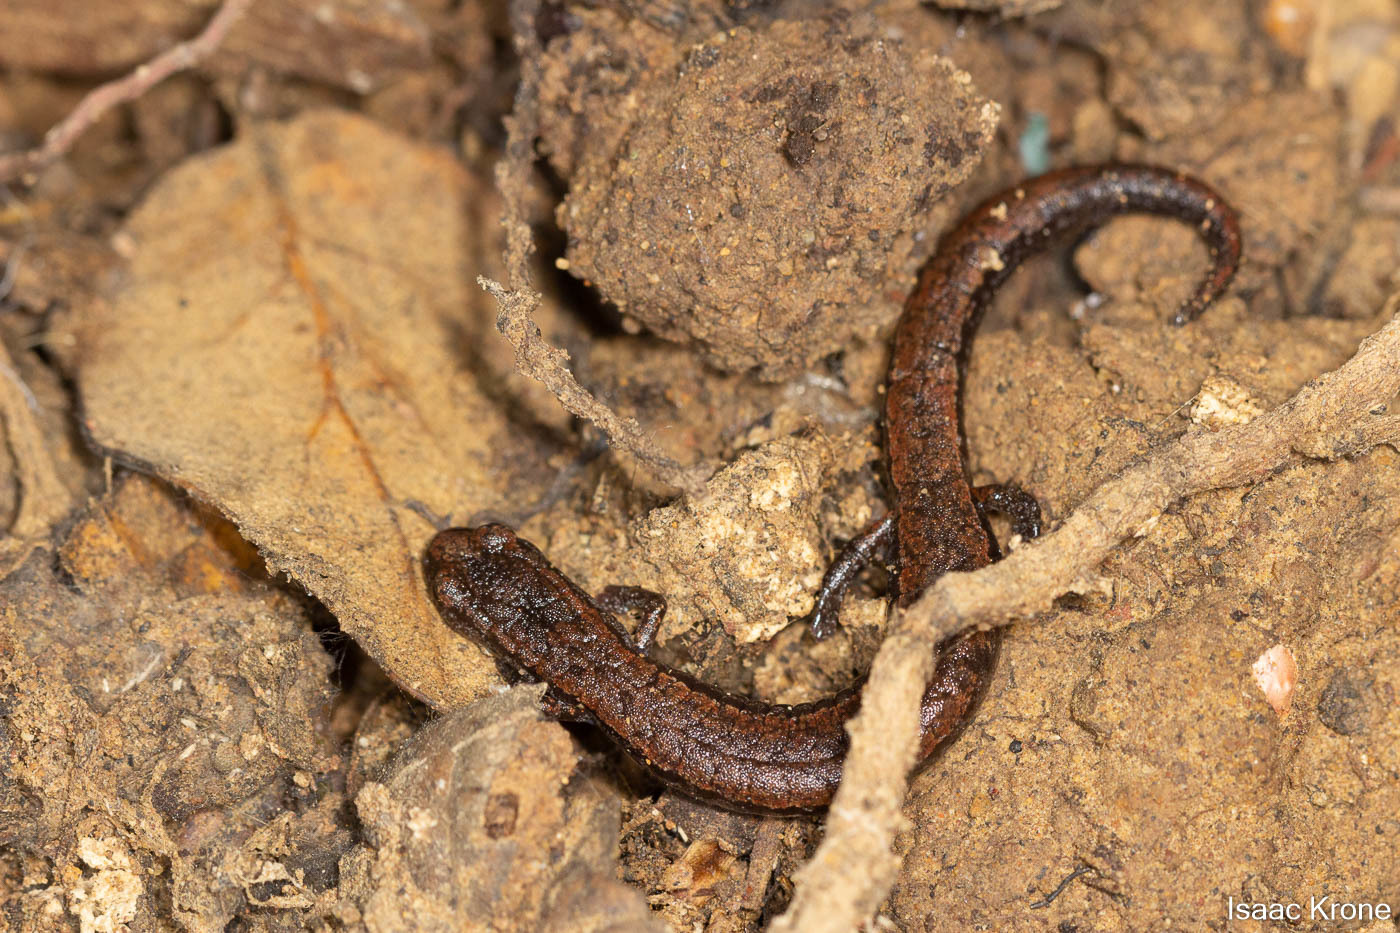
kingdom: Animalia
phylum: Chordata
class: Amphibia
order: Caudata
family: Plethodontidae
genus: Batrachoseps
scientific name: Batrachoseps attenuatus
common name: California slender salamander
